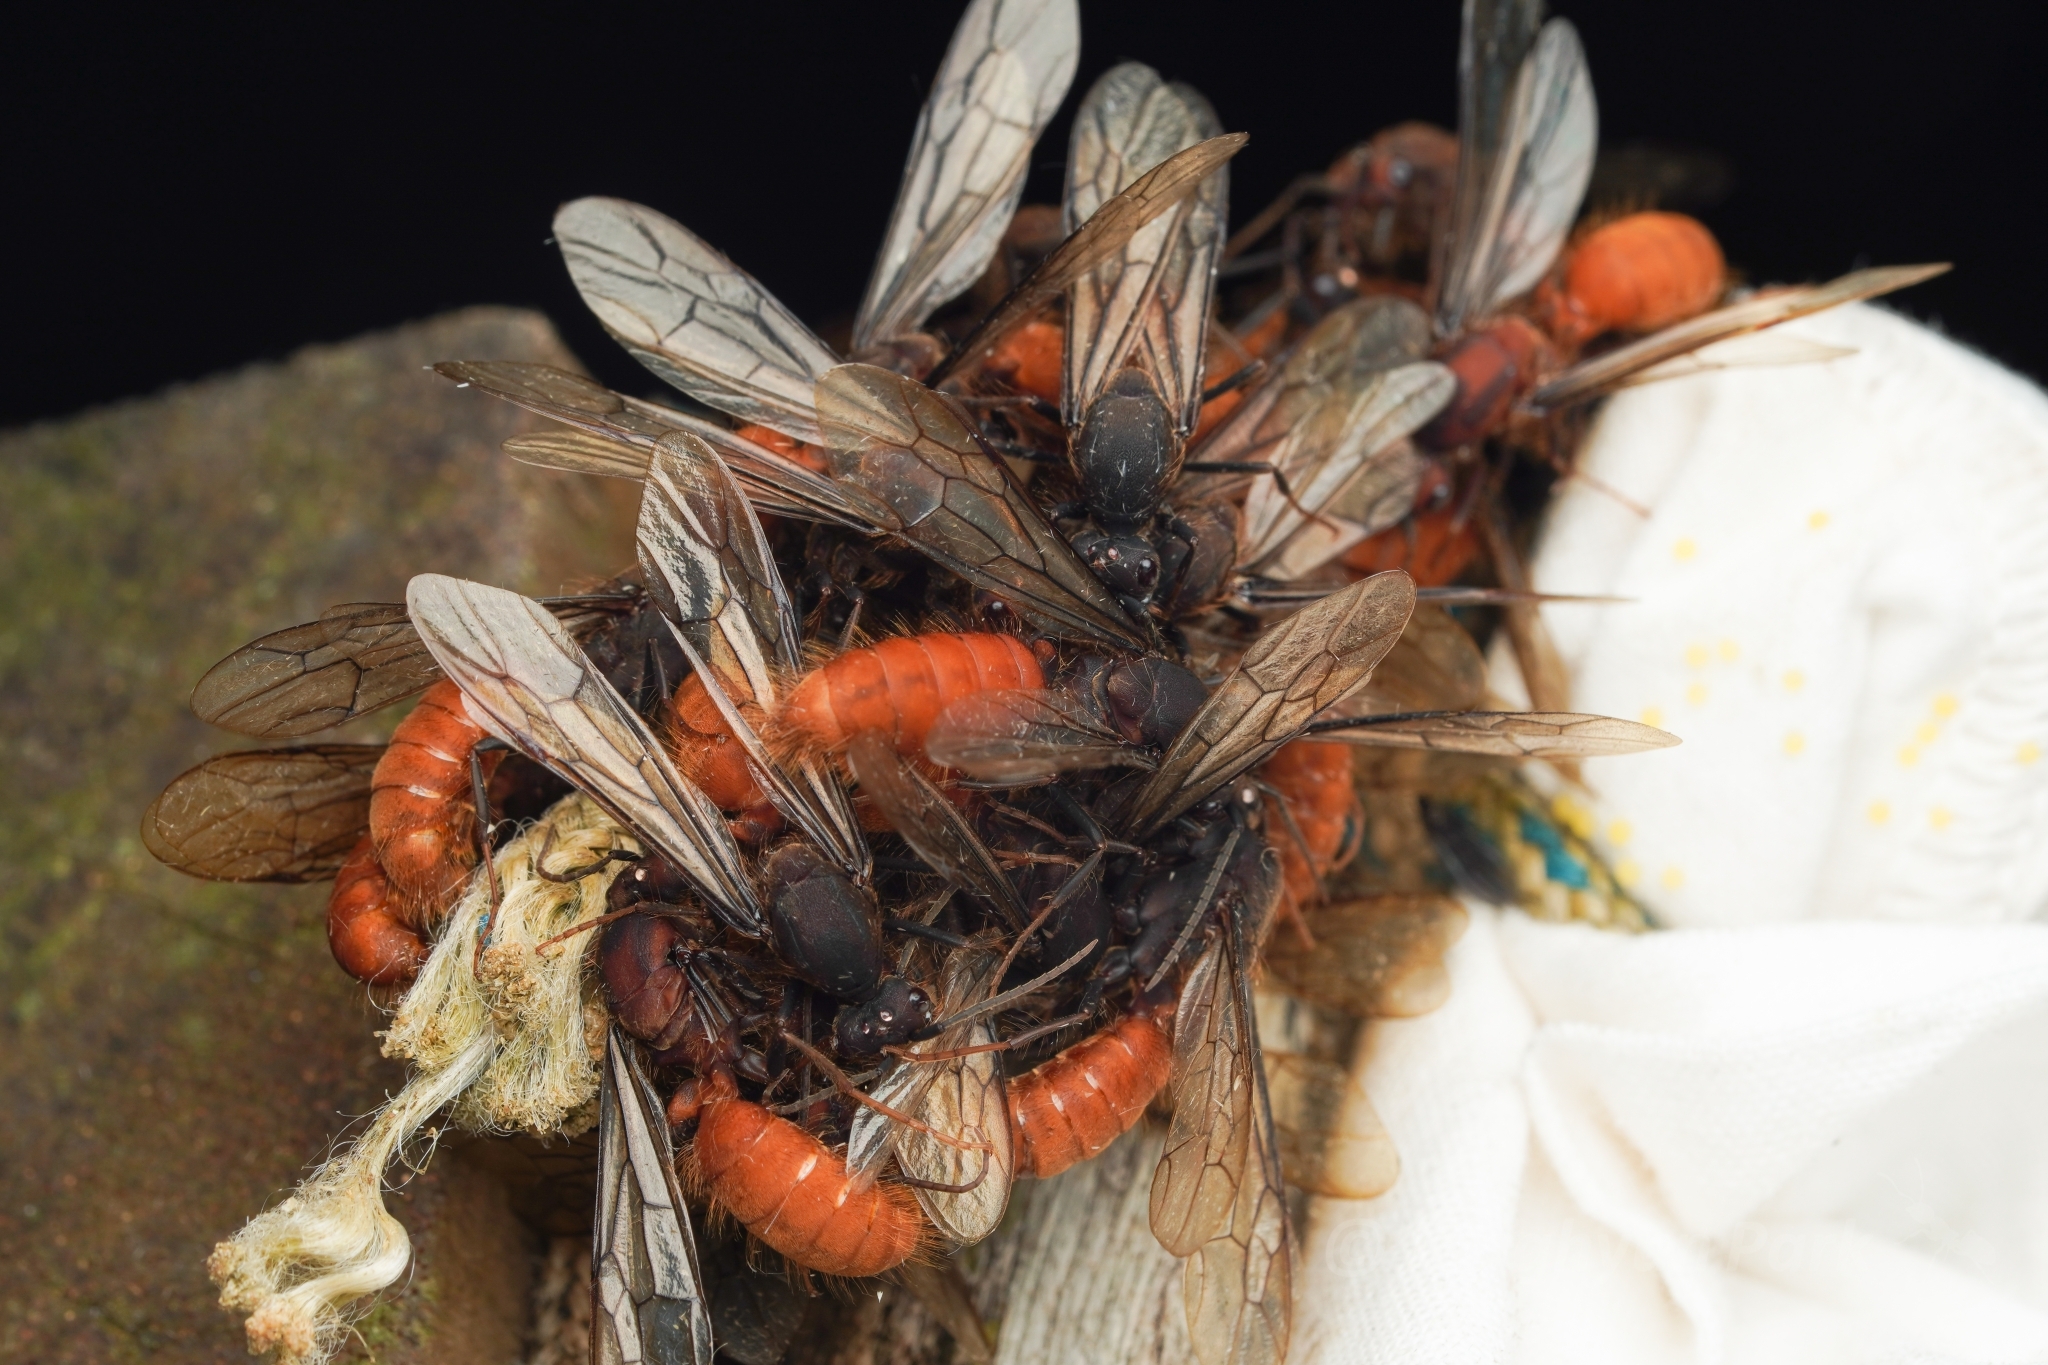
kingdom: Animalia
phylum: Arthropoda
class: Insecta
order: Hymenoptera
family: Formicidae
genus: Eciton
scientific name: Eciton burchellii
